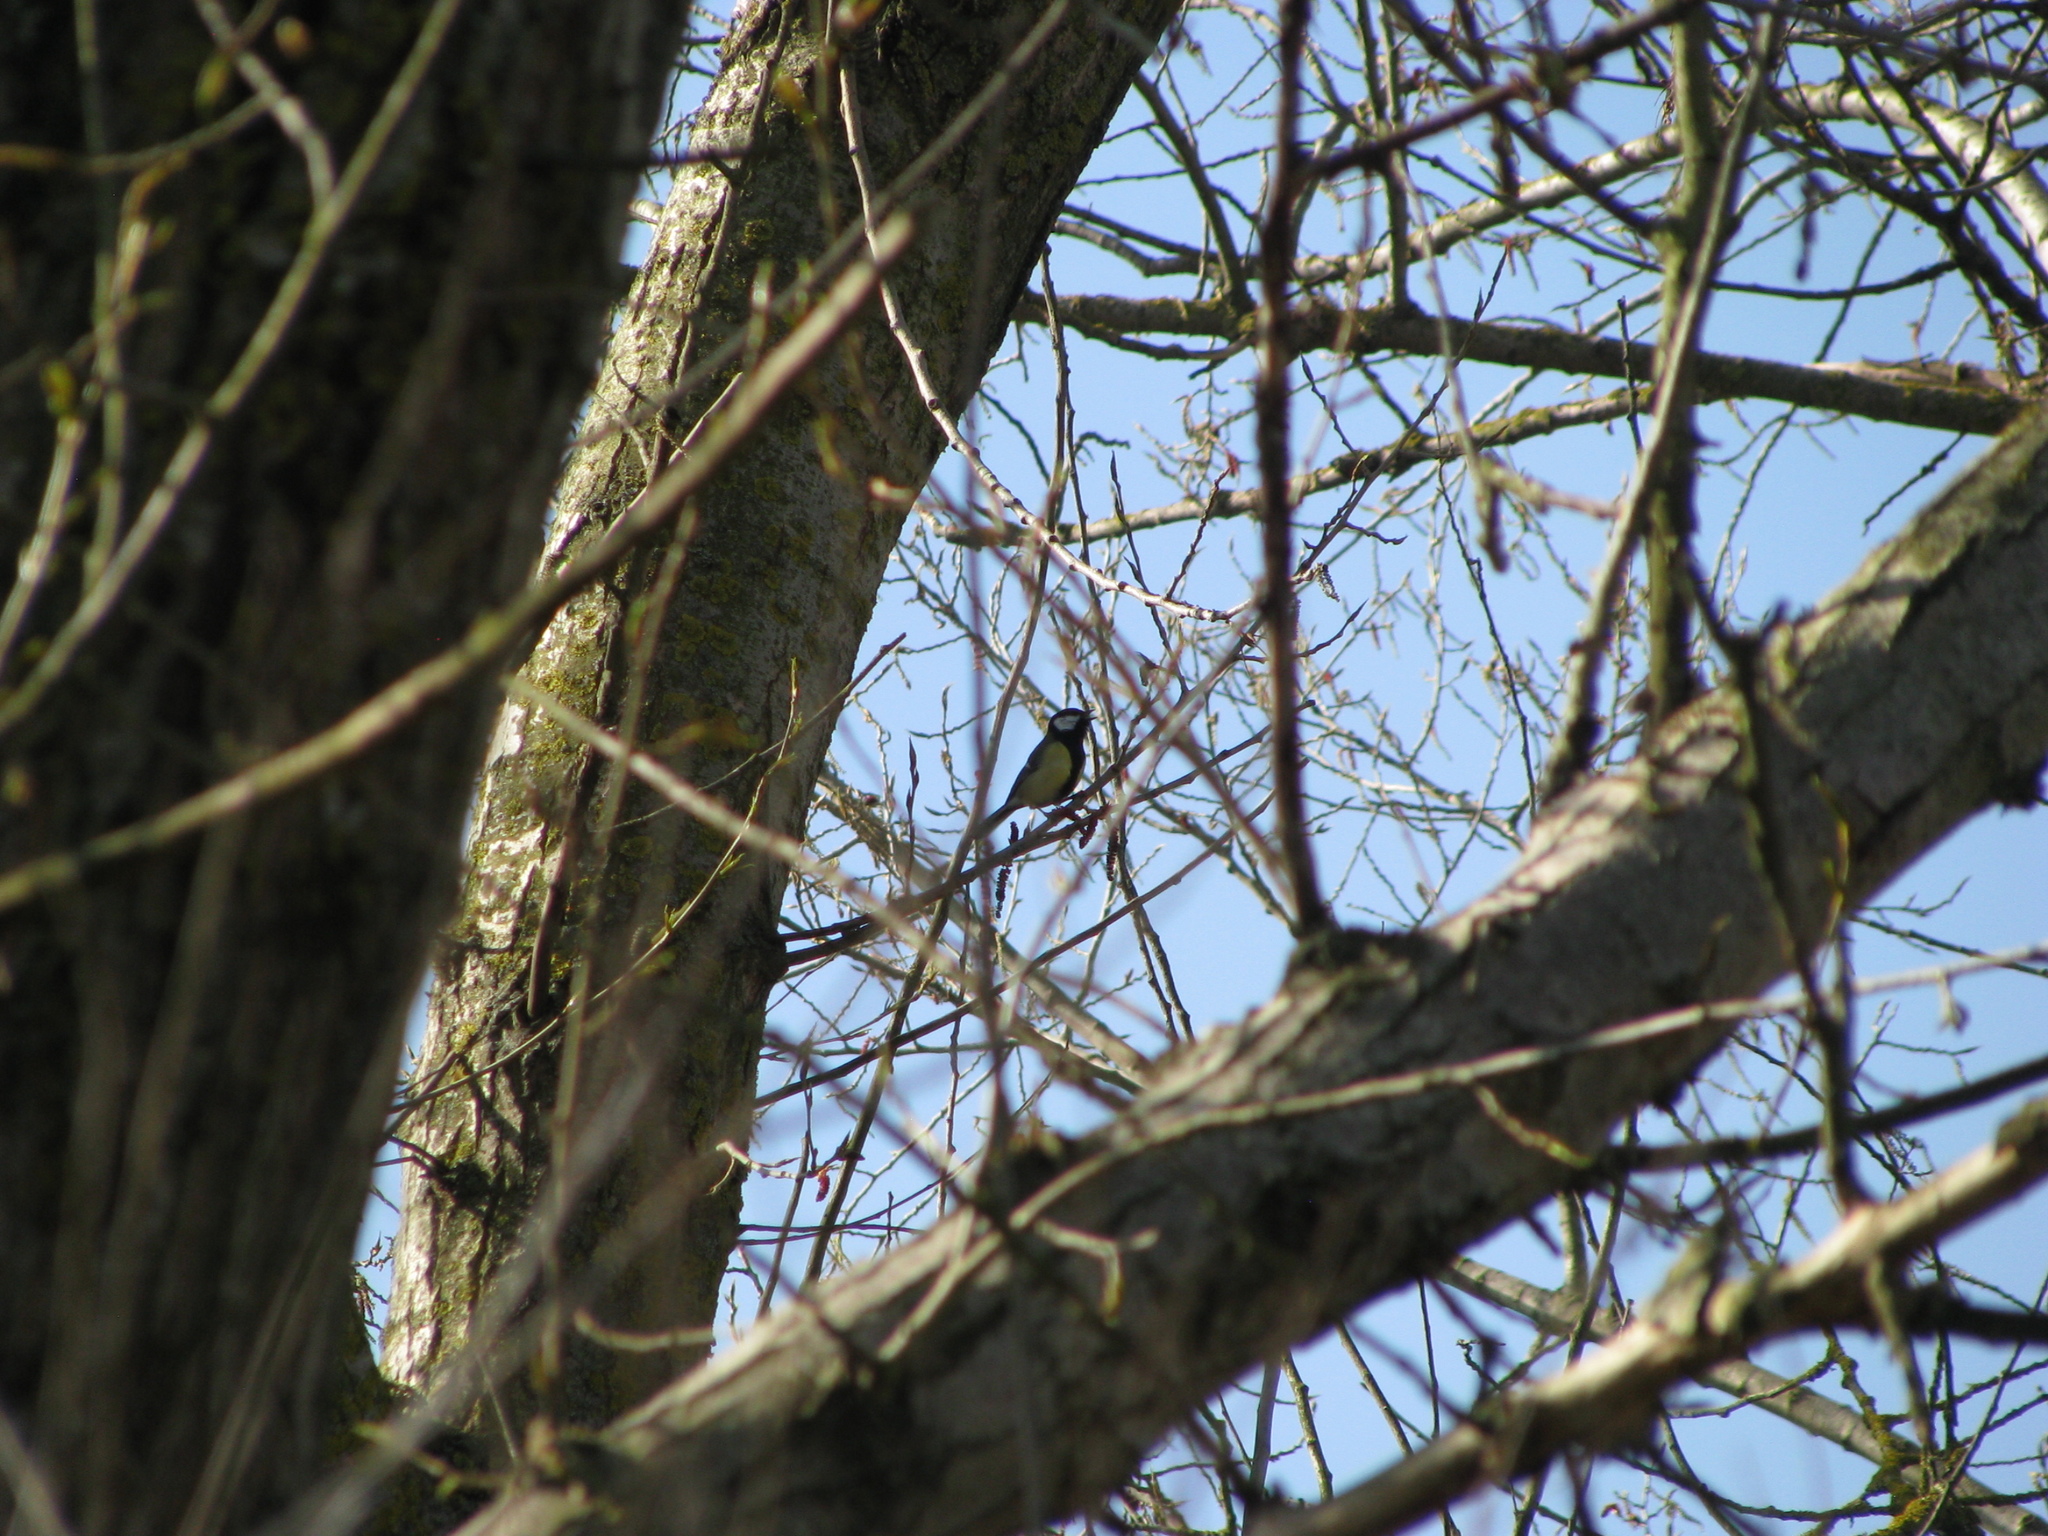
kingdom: Animalia
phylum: Chordata
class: Aves
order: Passeriformes
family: Paridae
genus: Parus
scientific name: Parus major
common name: Great tit
